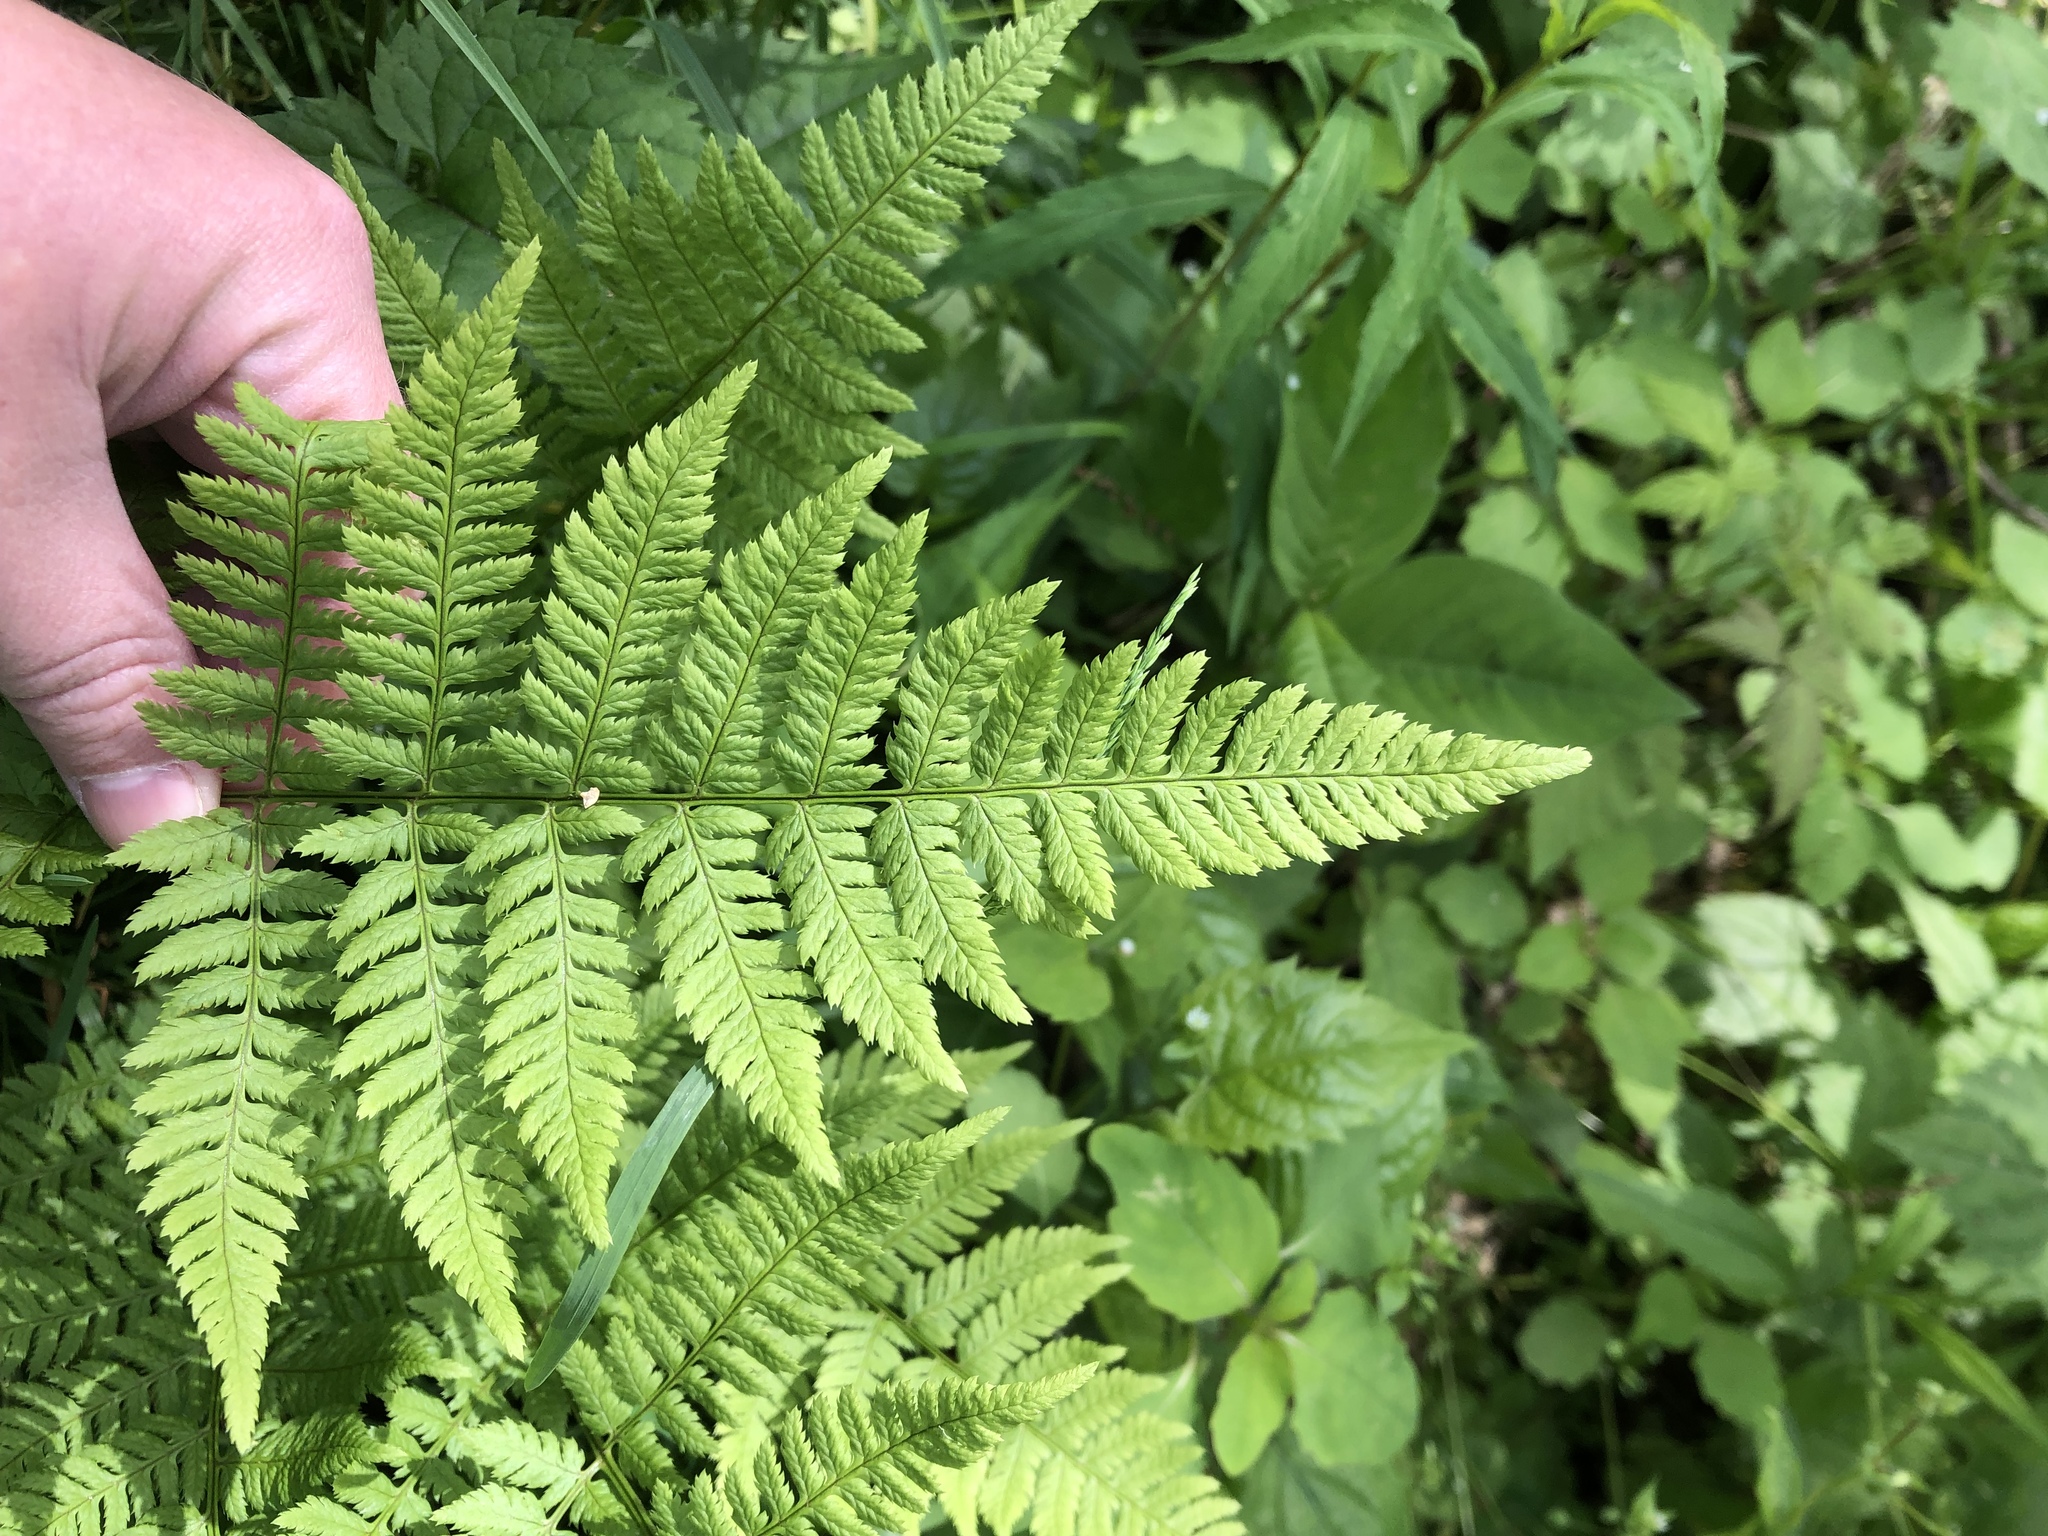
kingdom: Plantae
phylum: Tracheophyta
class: Polypodiopsida
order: Polypodiales
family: Dryopteridaceae
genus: Dryopteris
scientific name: Dryopteris carthusiana
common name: Narrow buckler-fern
